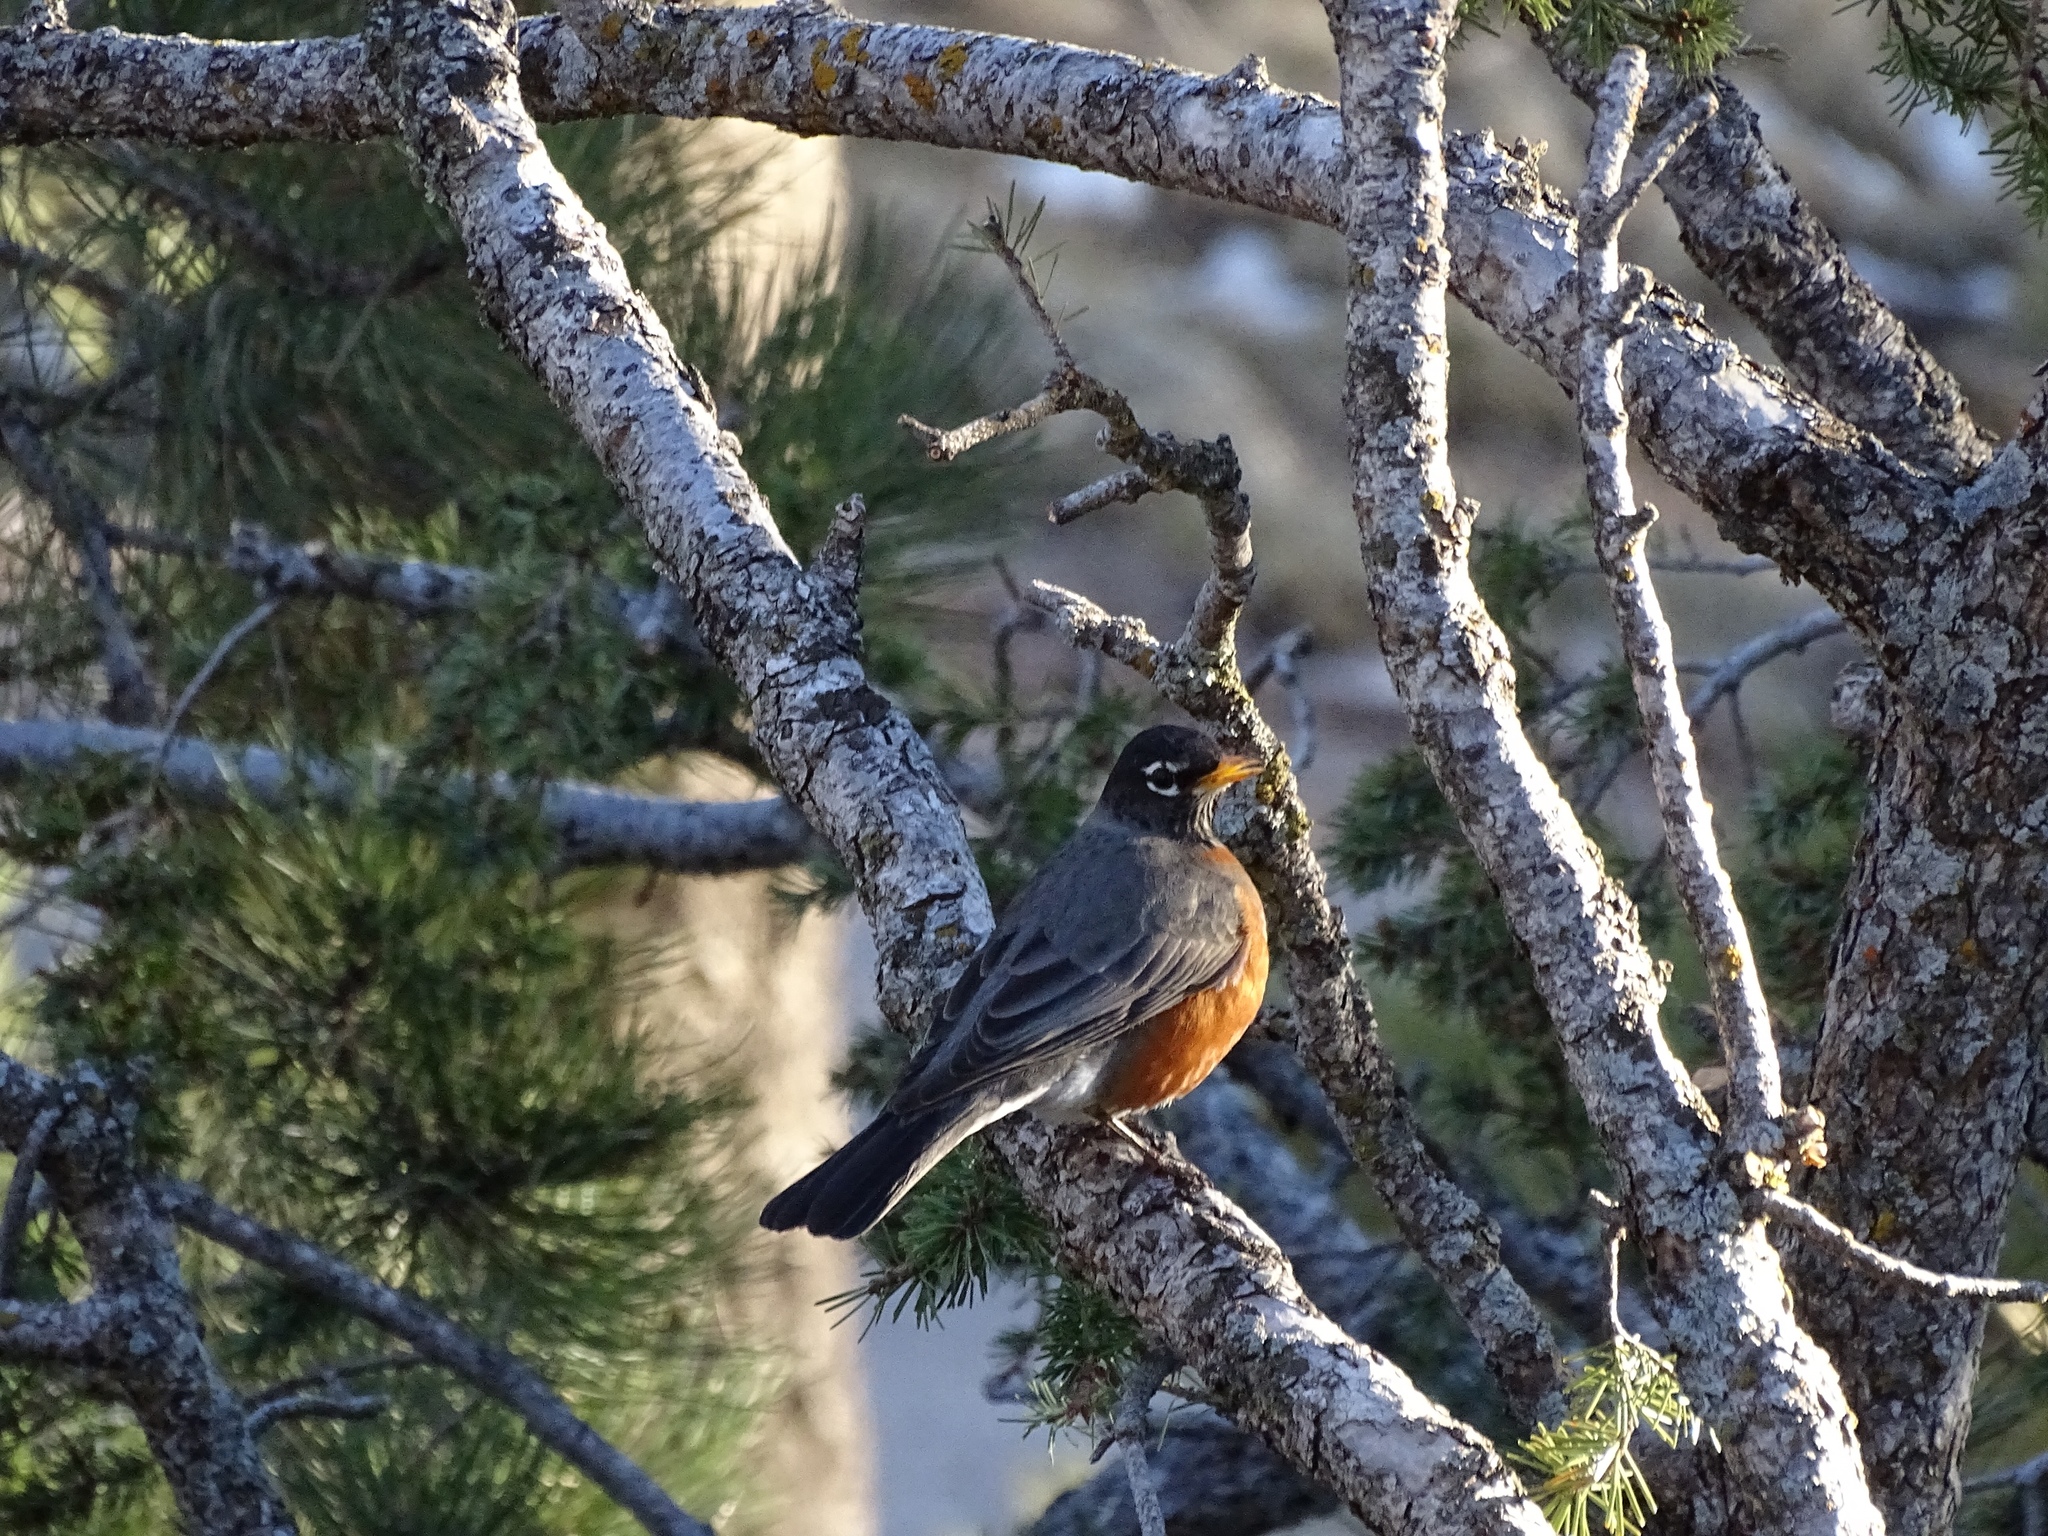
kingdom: Animalia
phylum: Chordata
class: Aves
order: Passeriformes
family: Turdidae
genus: Turdus
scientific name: Turdus migratorius
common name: American robin
